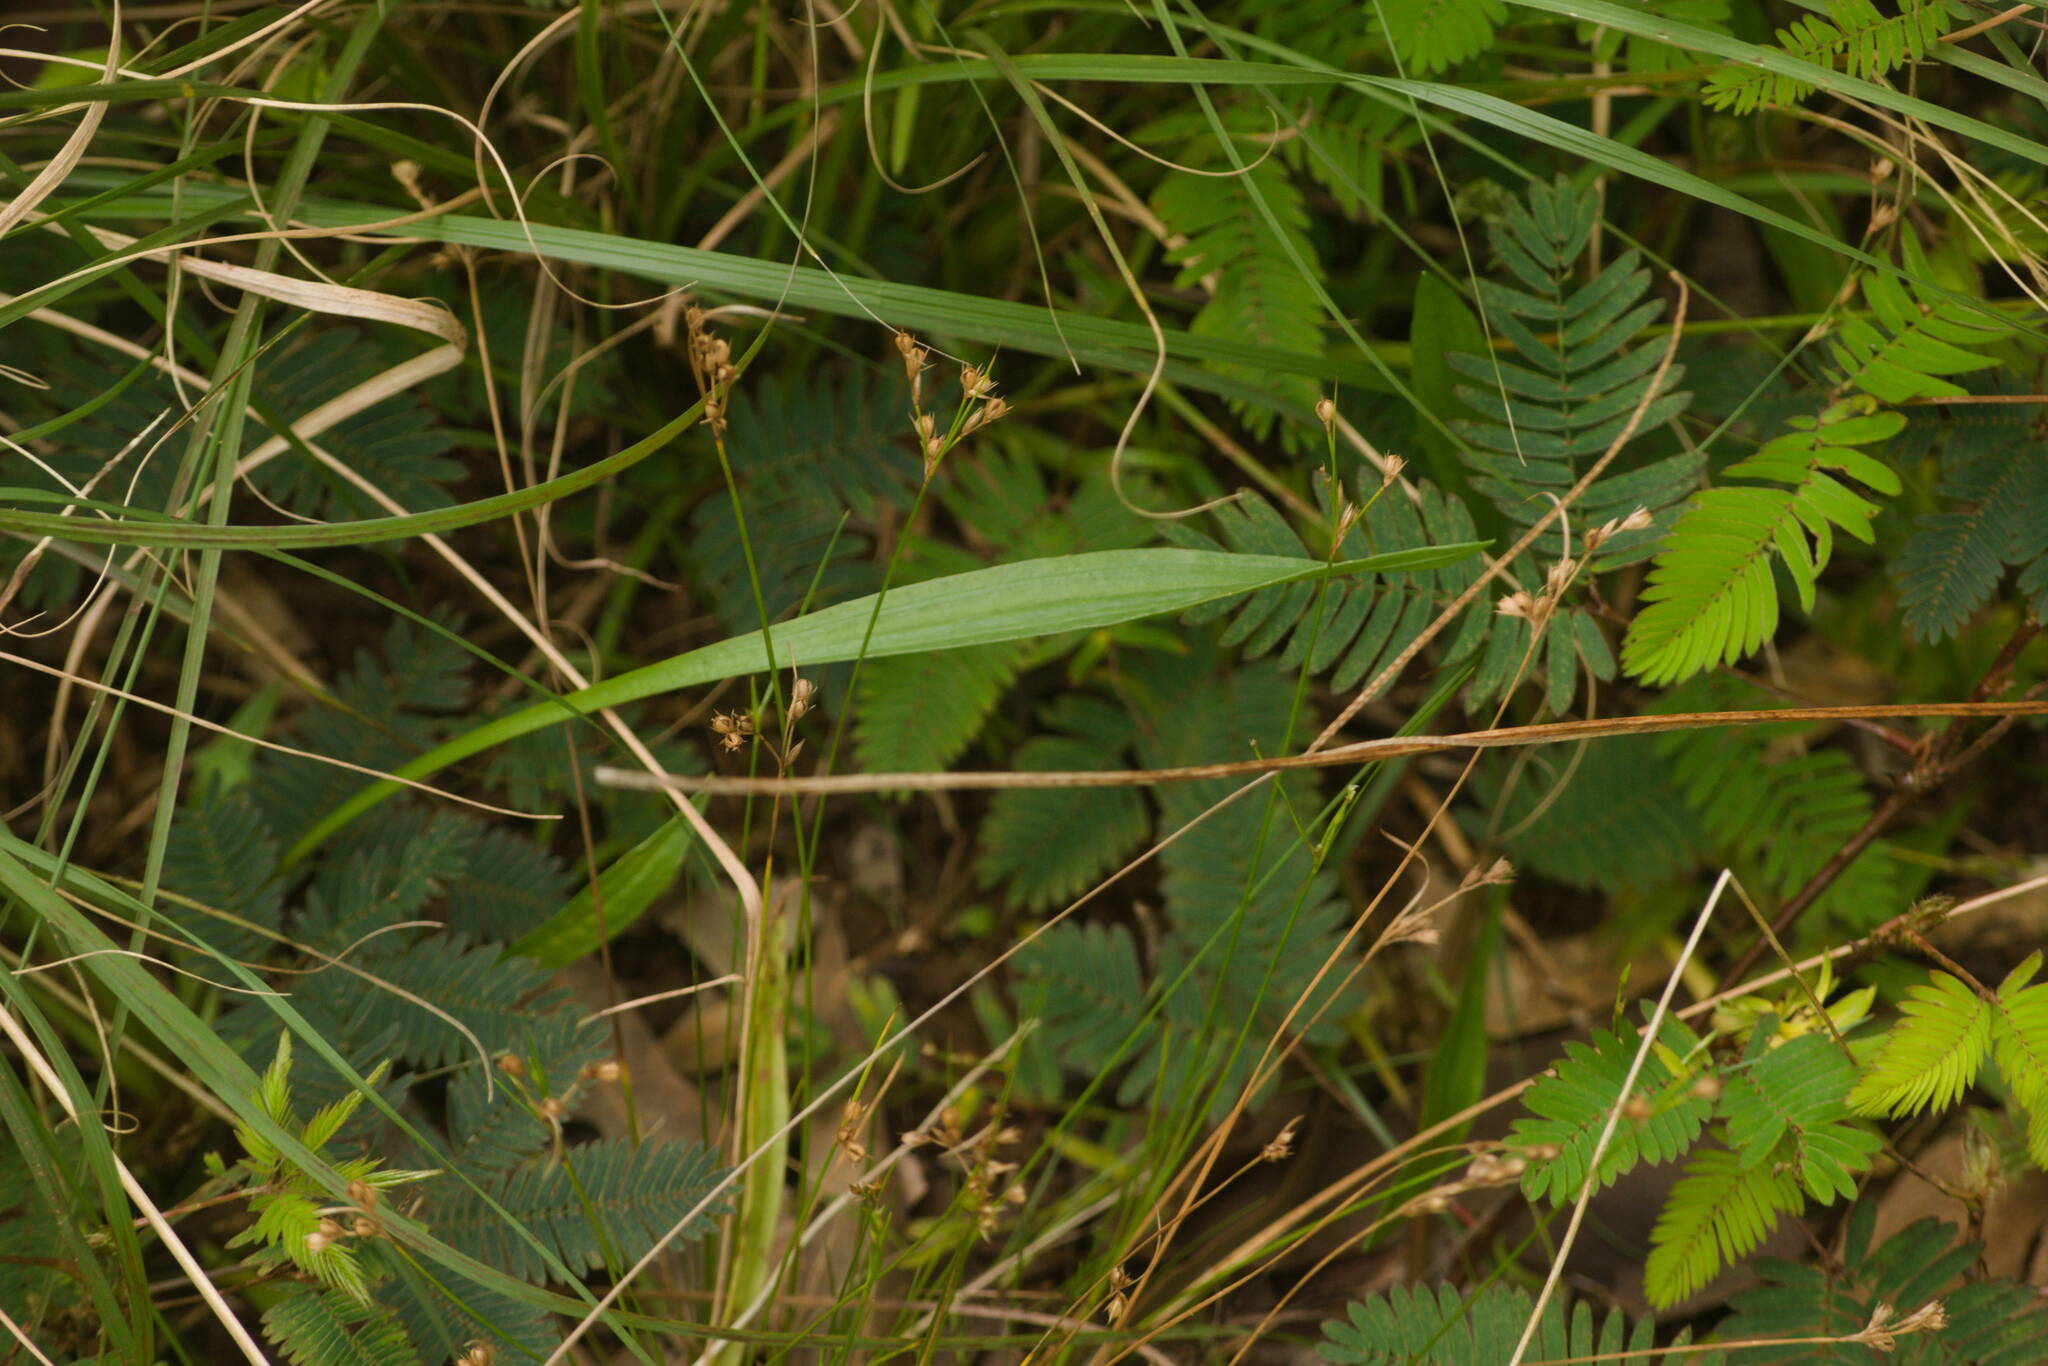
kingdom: Plantae
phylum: Tracheophyta
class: Liliopsida
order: Poales
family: Juncaceae
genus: Juncus
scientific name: Juncus tenuis
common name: Slender rush
